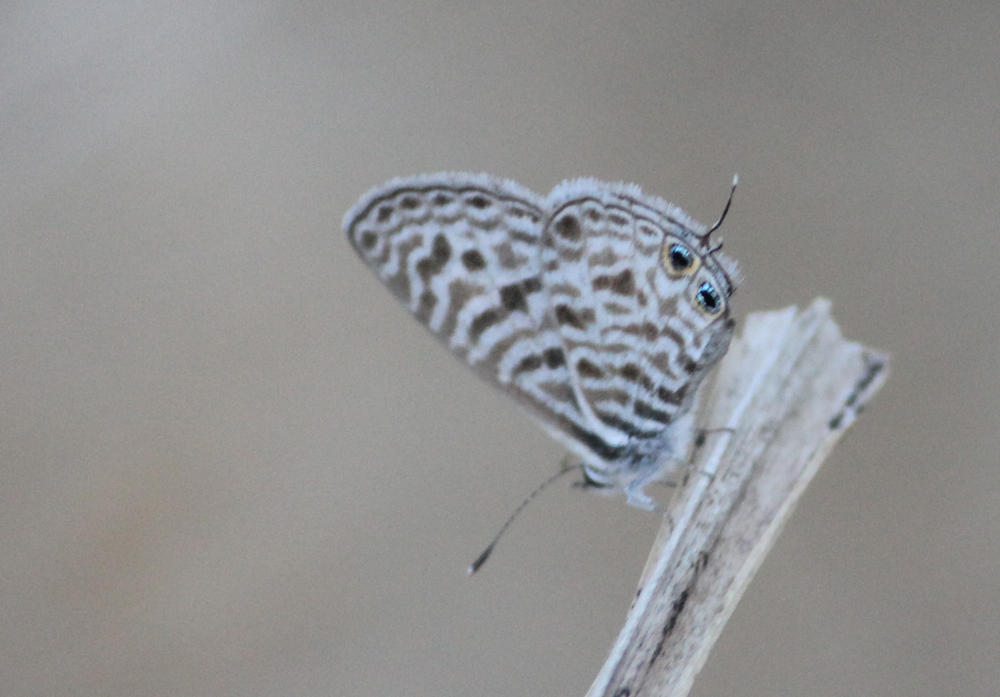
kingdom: Animalia
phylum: Arthropoda
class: Insecta
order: Lepidoptera
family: Lycaenidae
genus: Leptotes
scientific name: Leptotes
